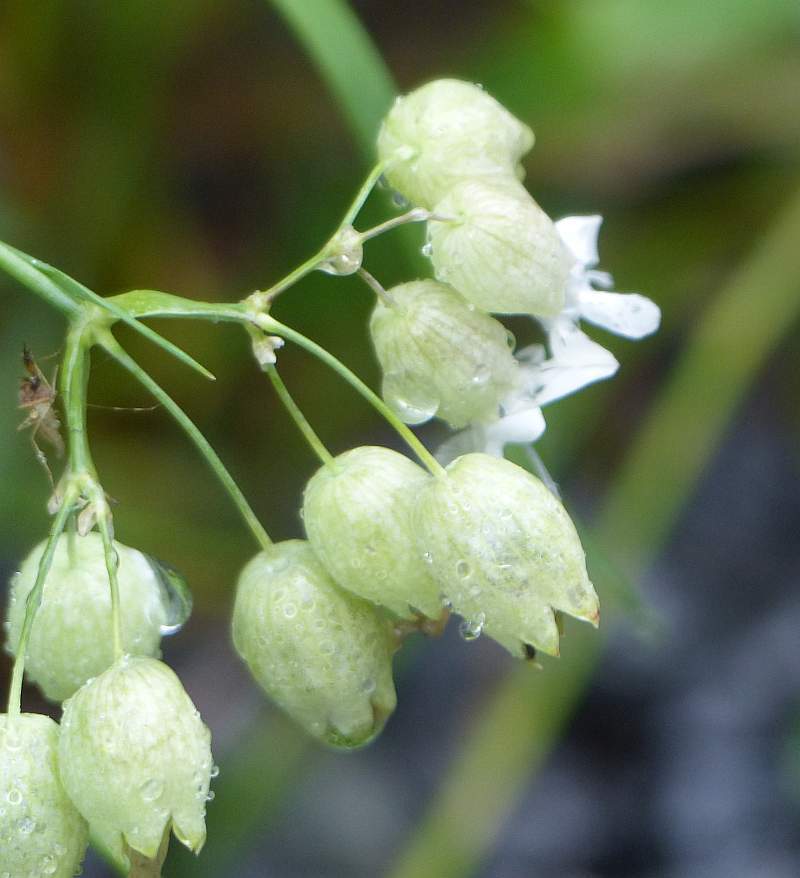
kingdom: Plantae
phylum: Tracheophyta
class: Magnoliopsida
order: Caryophyllales
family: Caryophyllaceae
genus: Silene
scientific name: Silene vulgaris
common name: Bladder campion
